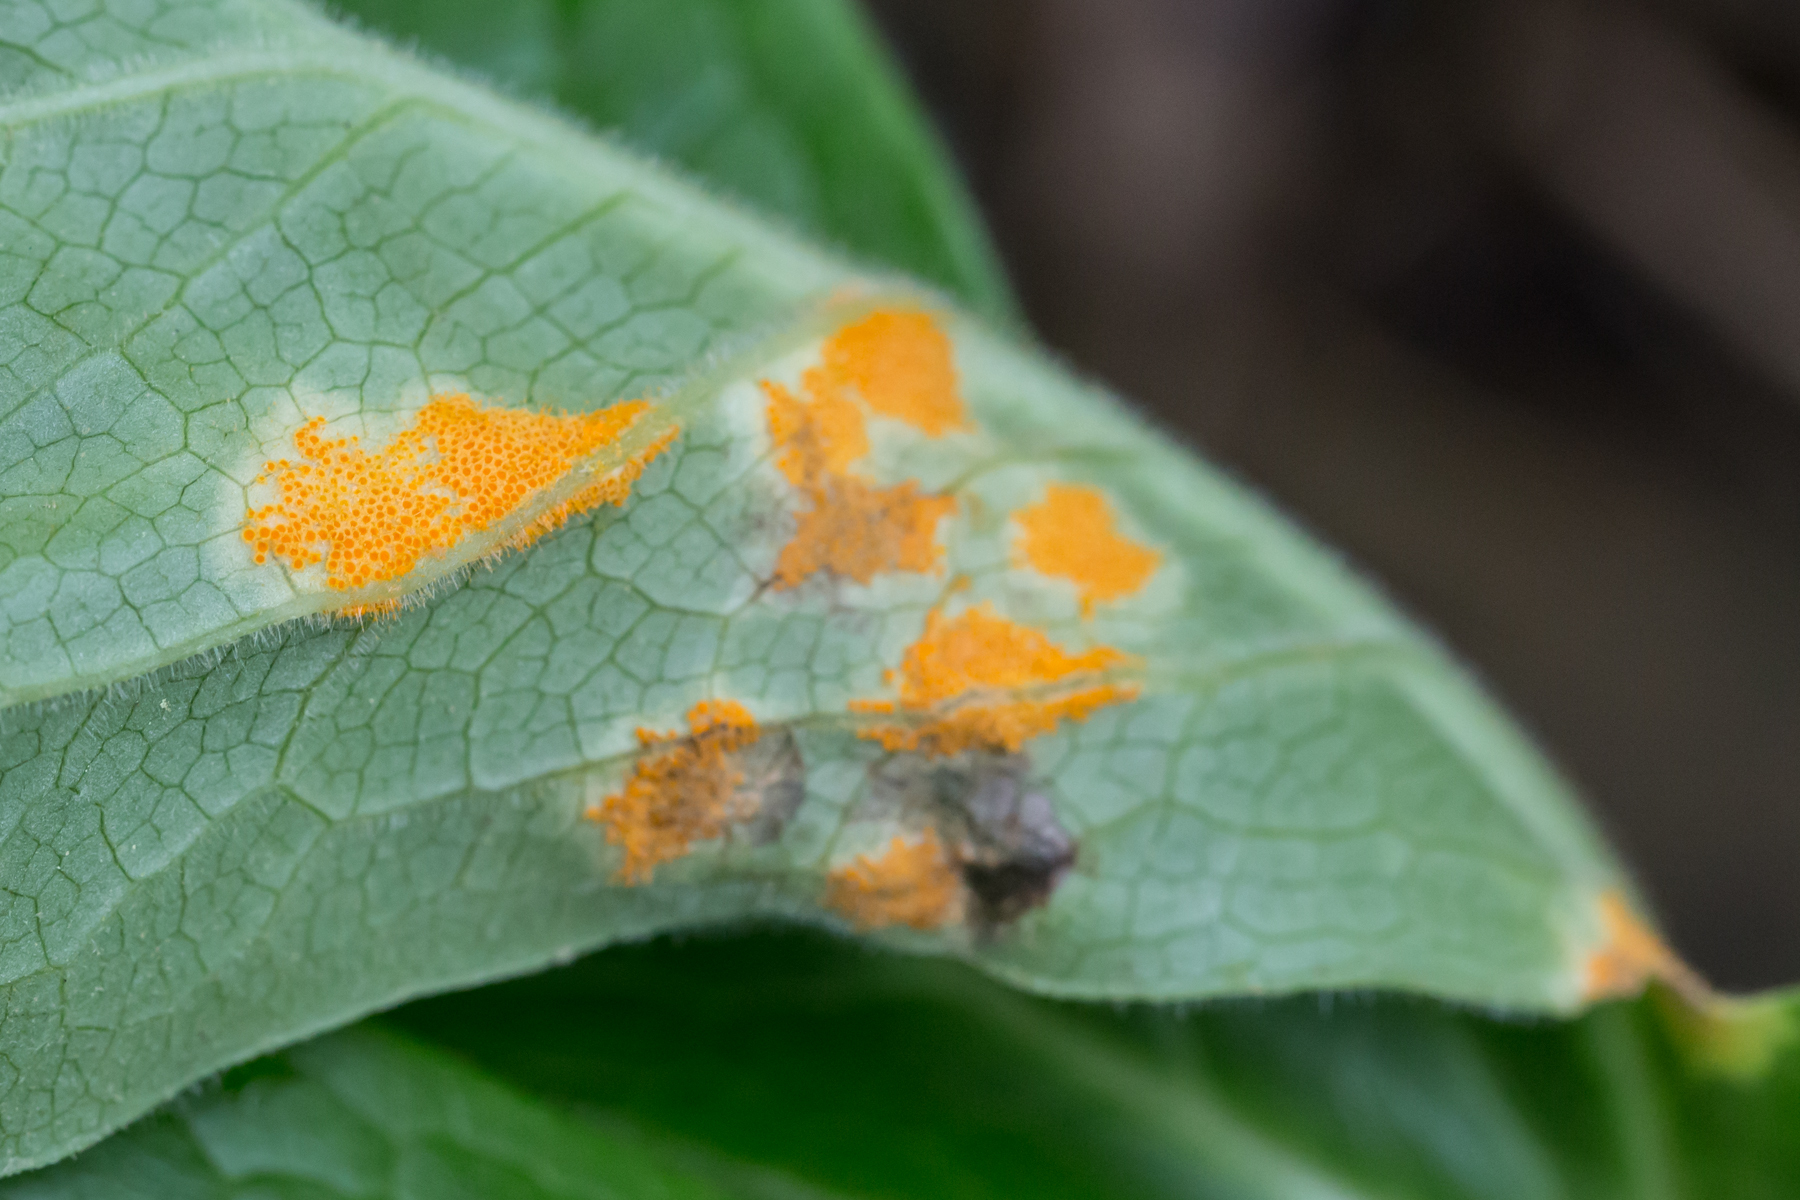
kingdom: Fungi
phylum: Basidiomycota
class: Pucciniomycetes
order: Pucciniales
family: Pucciniaceae
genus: Puccinia
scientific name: Puccinia podophylli
